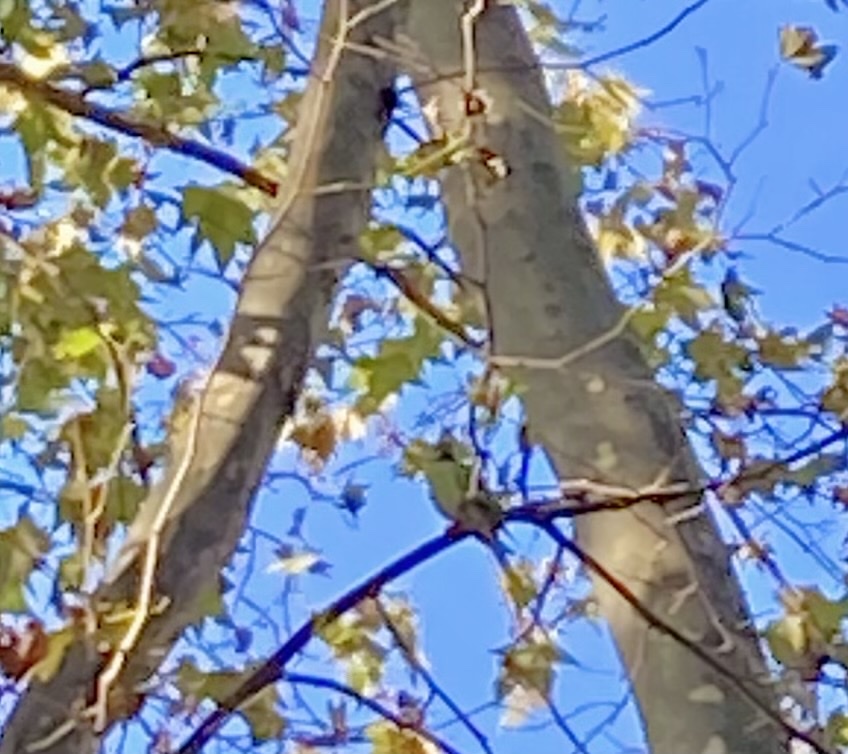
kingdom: Animalia
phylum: Chordata
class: Aves
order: Psittaciformes
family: Psittacidae
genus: Psittacula
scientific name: Psittacula krameri
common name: Rose-ringed parakeet
